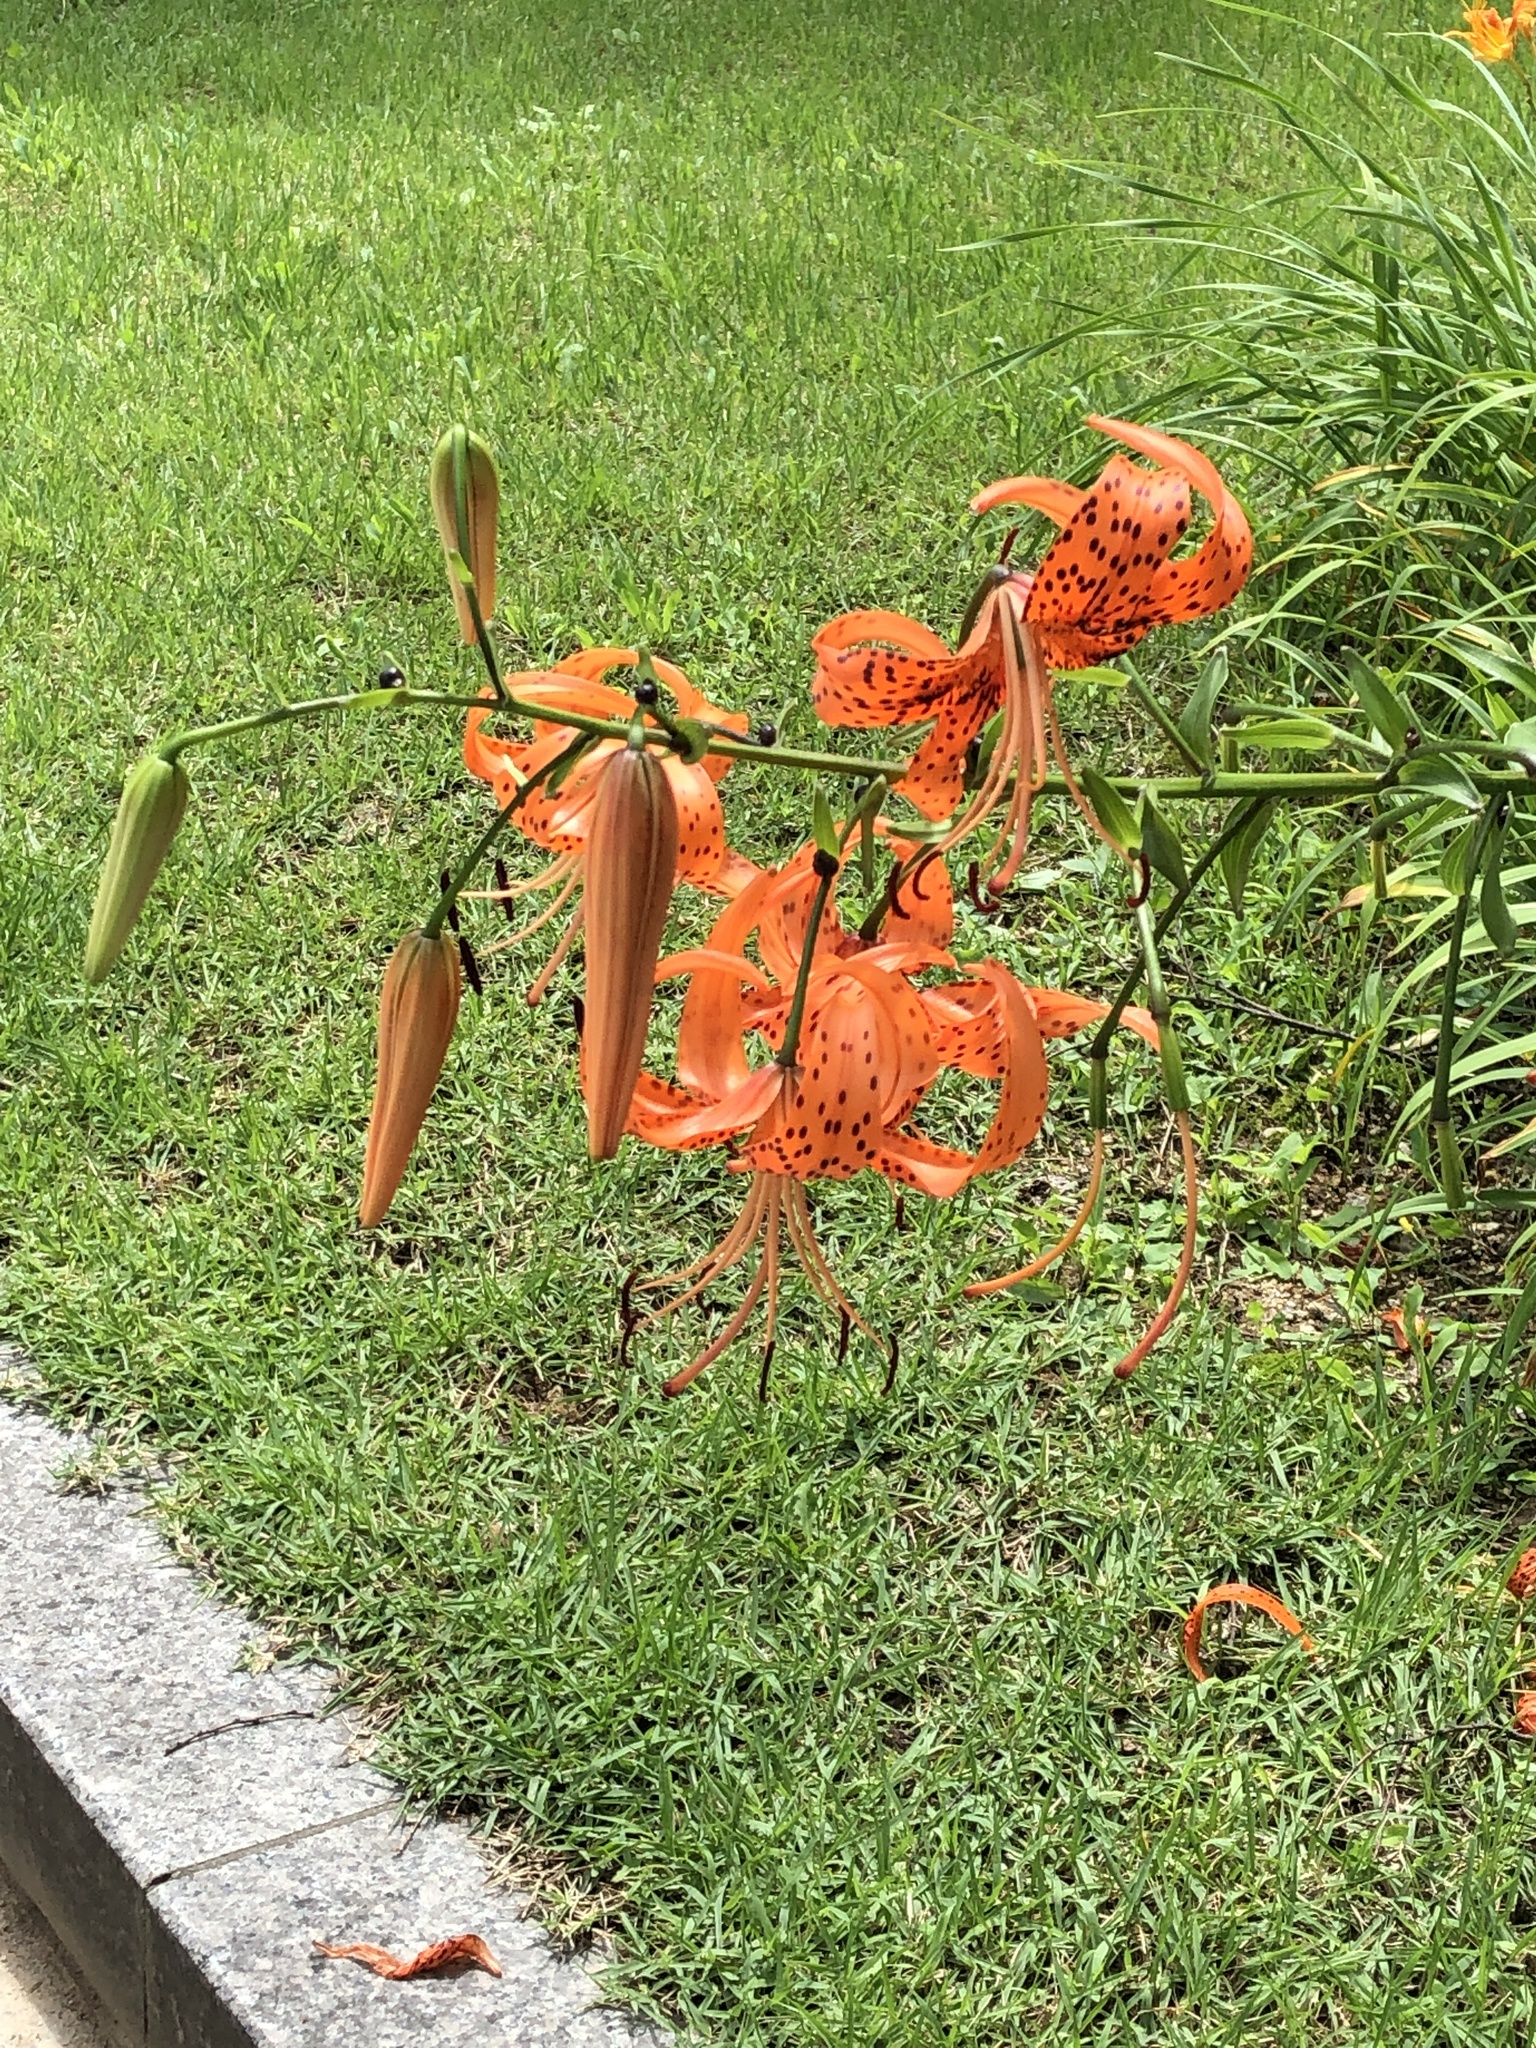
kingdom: Plantae
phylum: Tracheophyta
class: Liliopsida
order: Liliales
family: Liliaceae
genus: Lilium
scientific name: Lilium lancifolium
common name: Tiger lily
